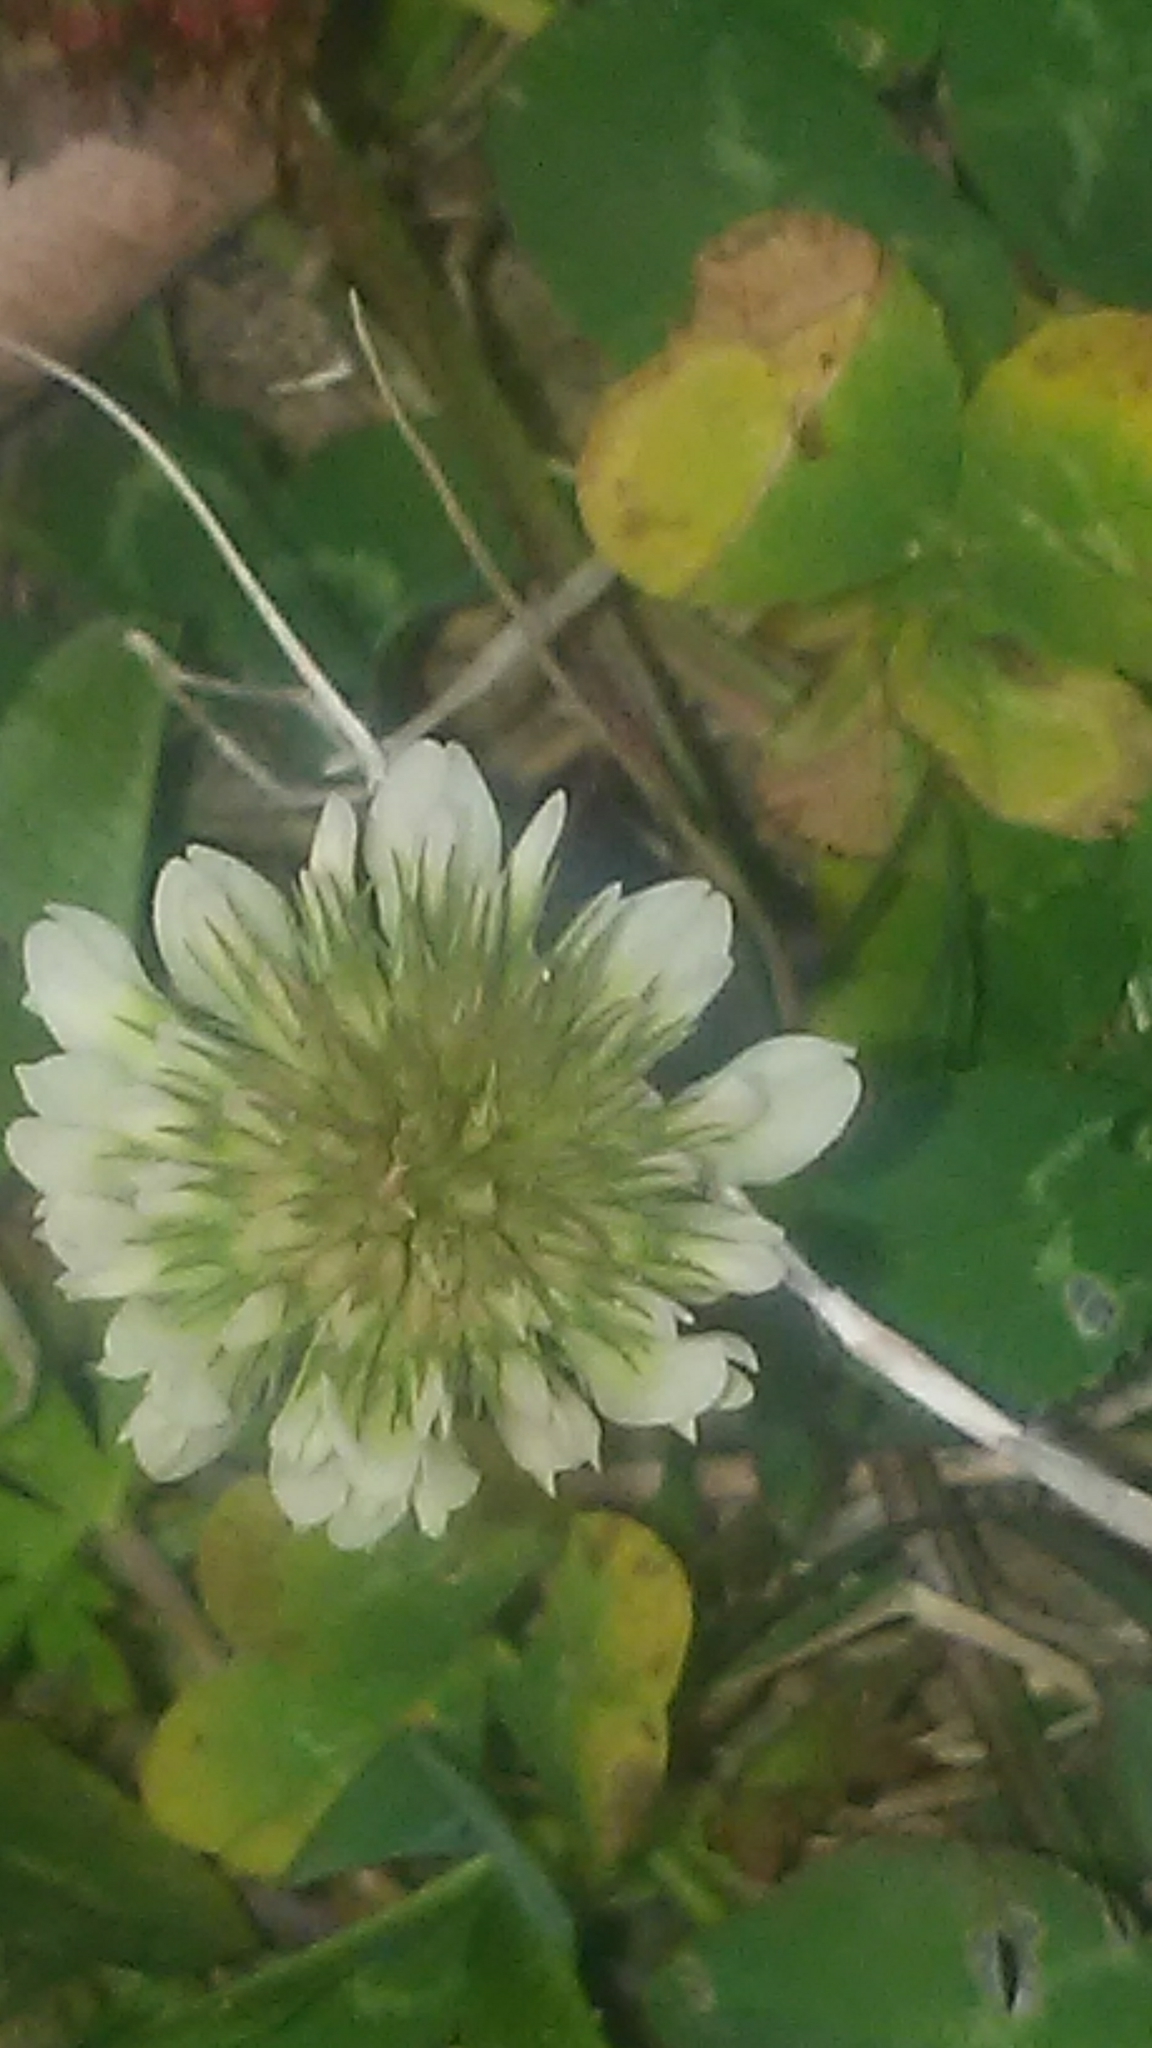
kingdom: Plantae
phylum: Tracheophyta
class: Magnoliopsida
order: Fabales
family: Fabaceae
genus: Trifolium
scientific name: Trifolium repens
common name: White clover
